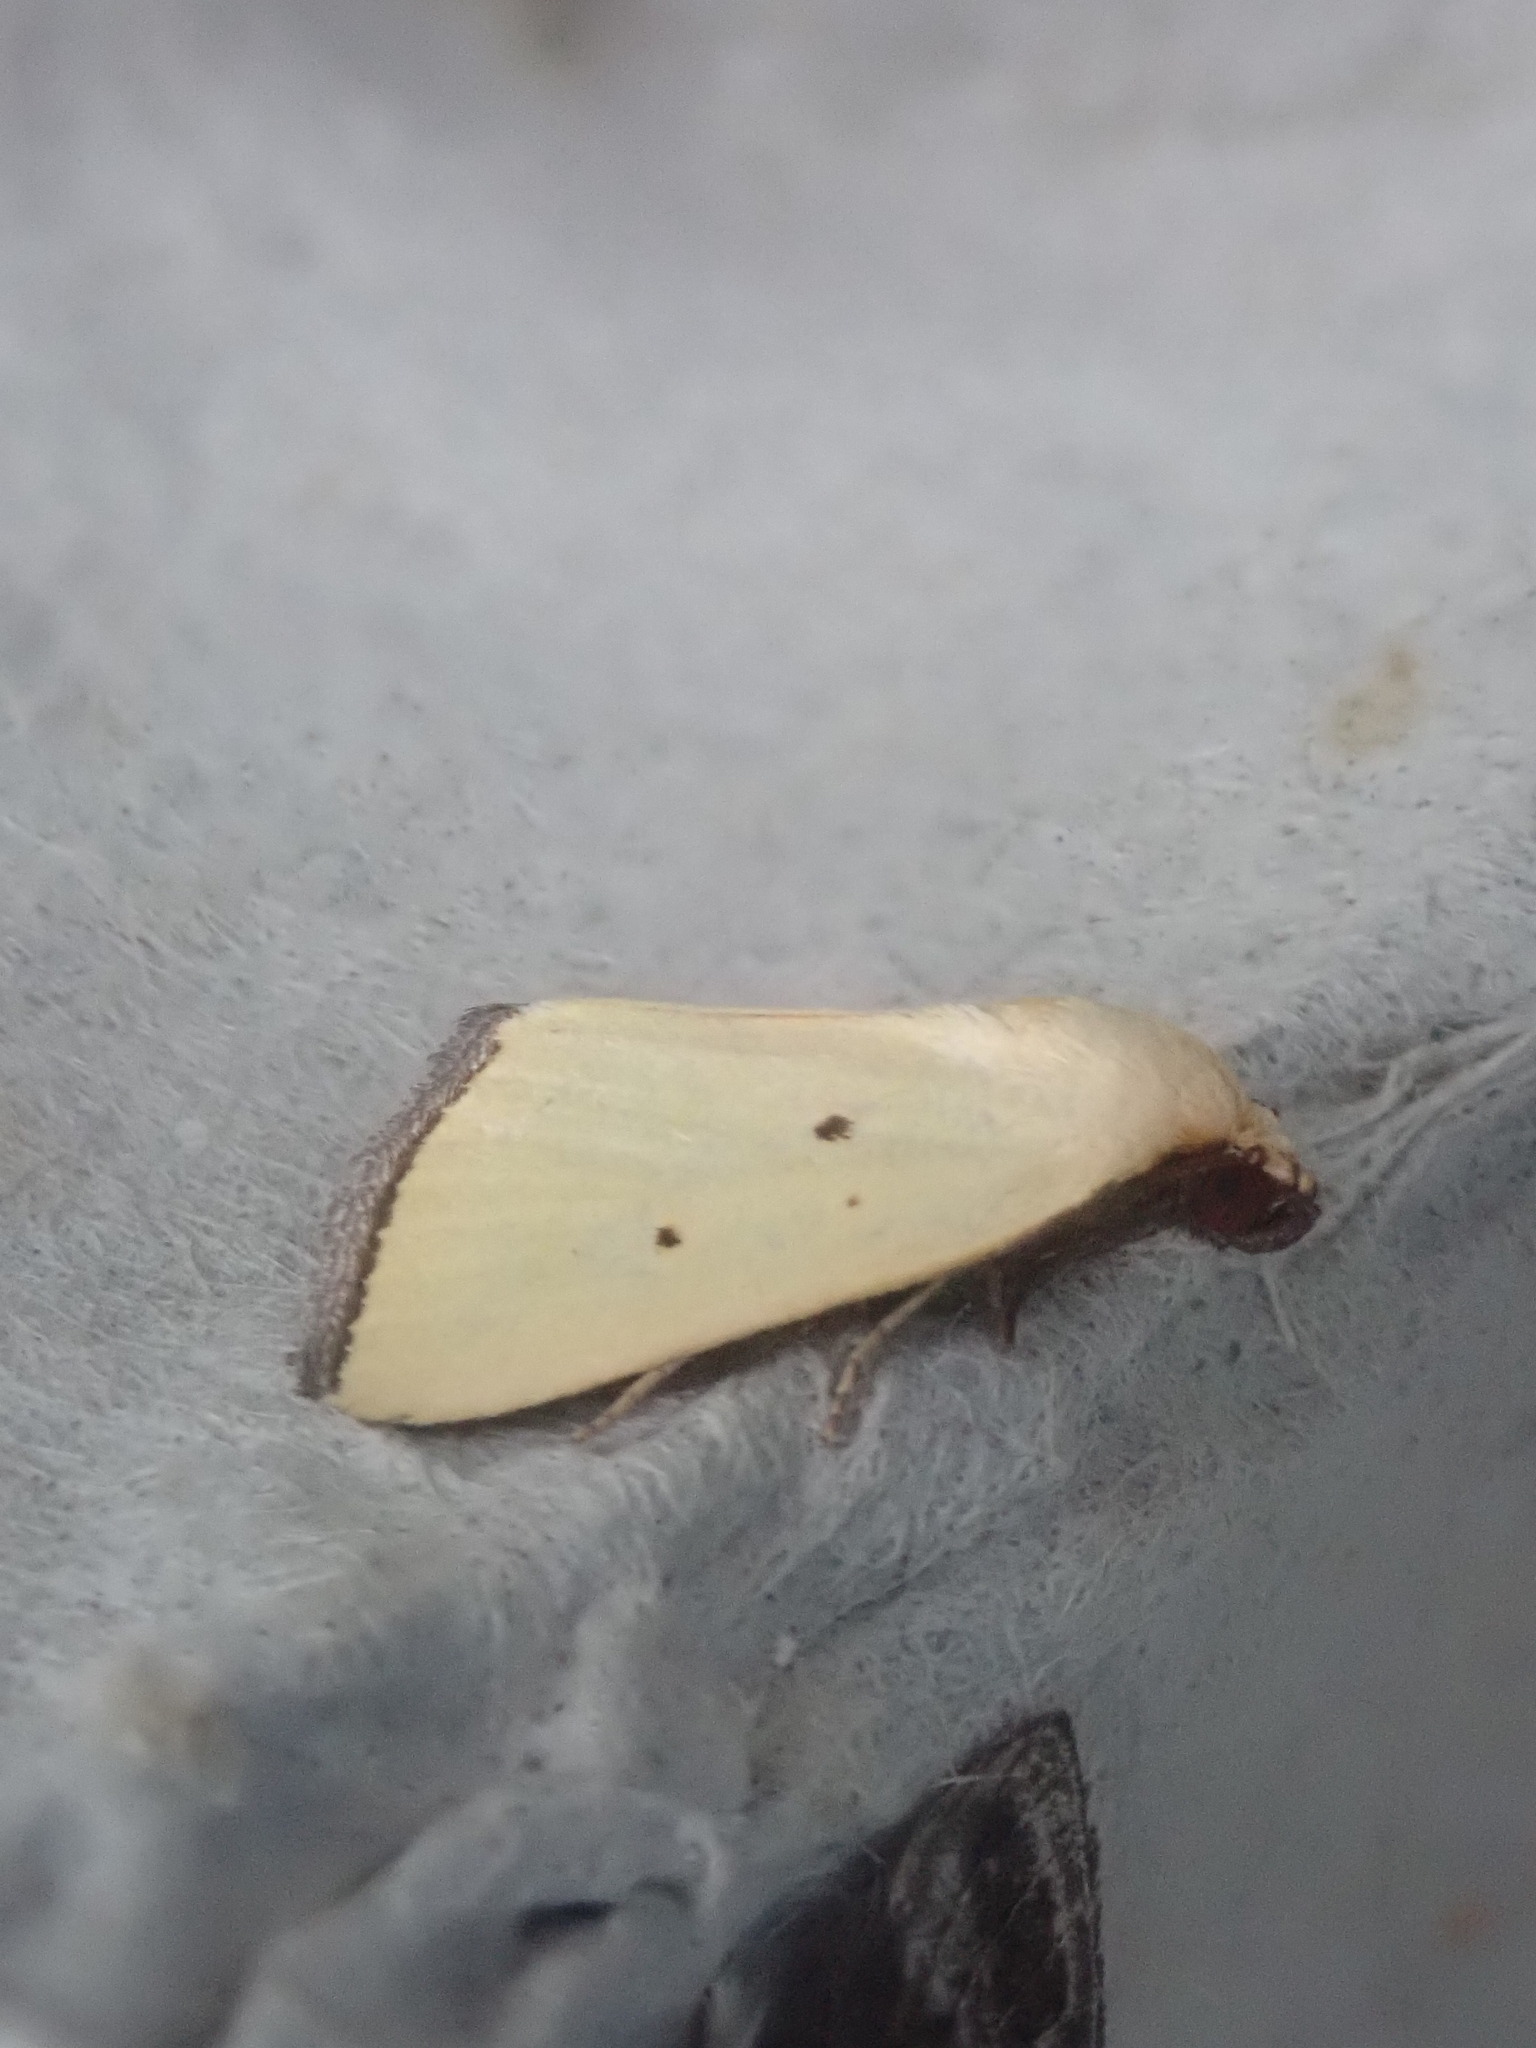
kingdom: Animalia
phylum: Arthropoda
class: Insecta
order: Lepidoptera
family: Noctuidae
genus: Marimatha
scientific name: Marimatha nigrofimbria
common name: Black-bordered lemon moth
